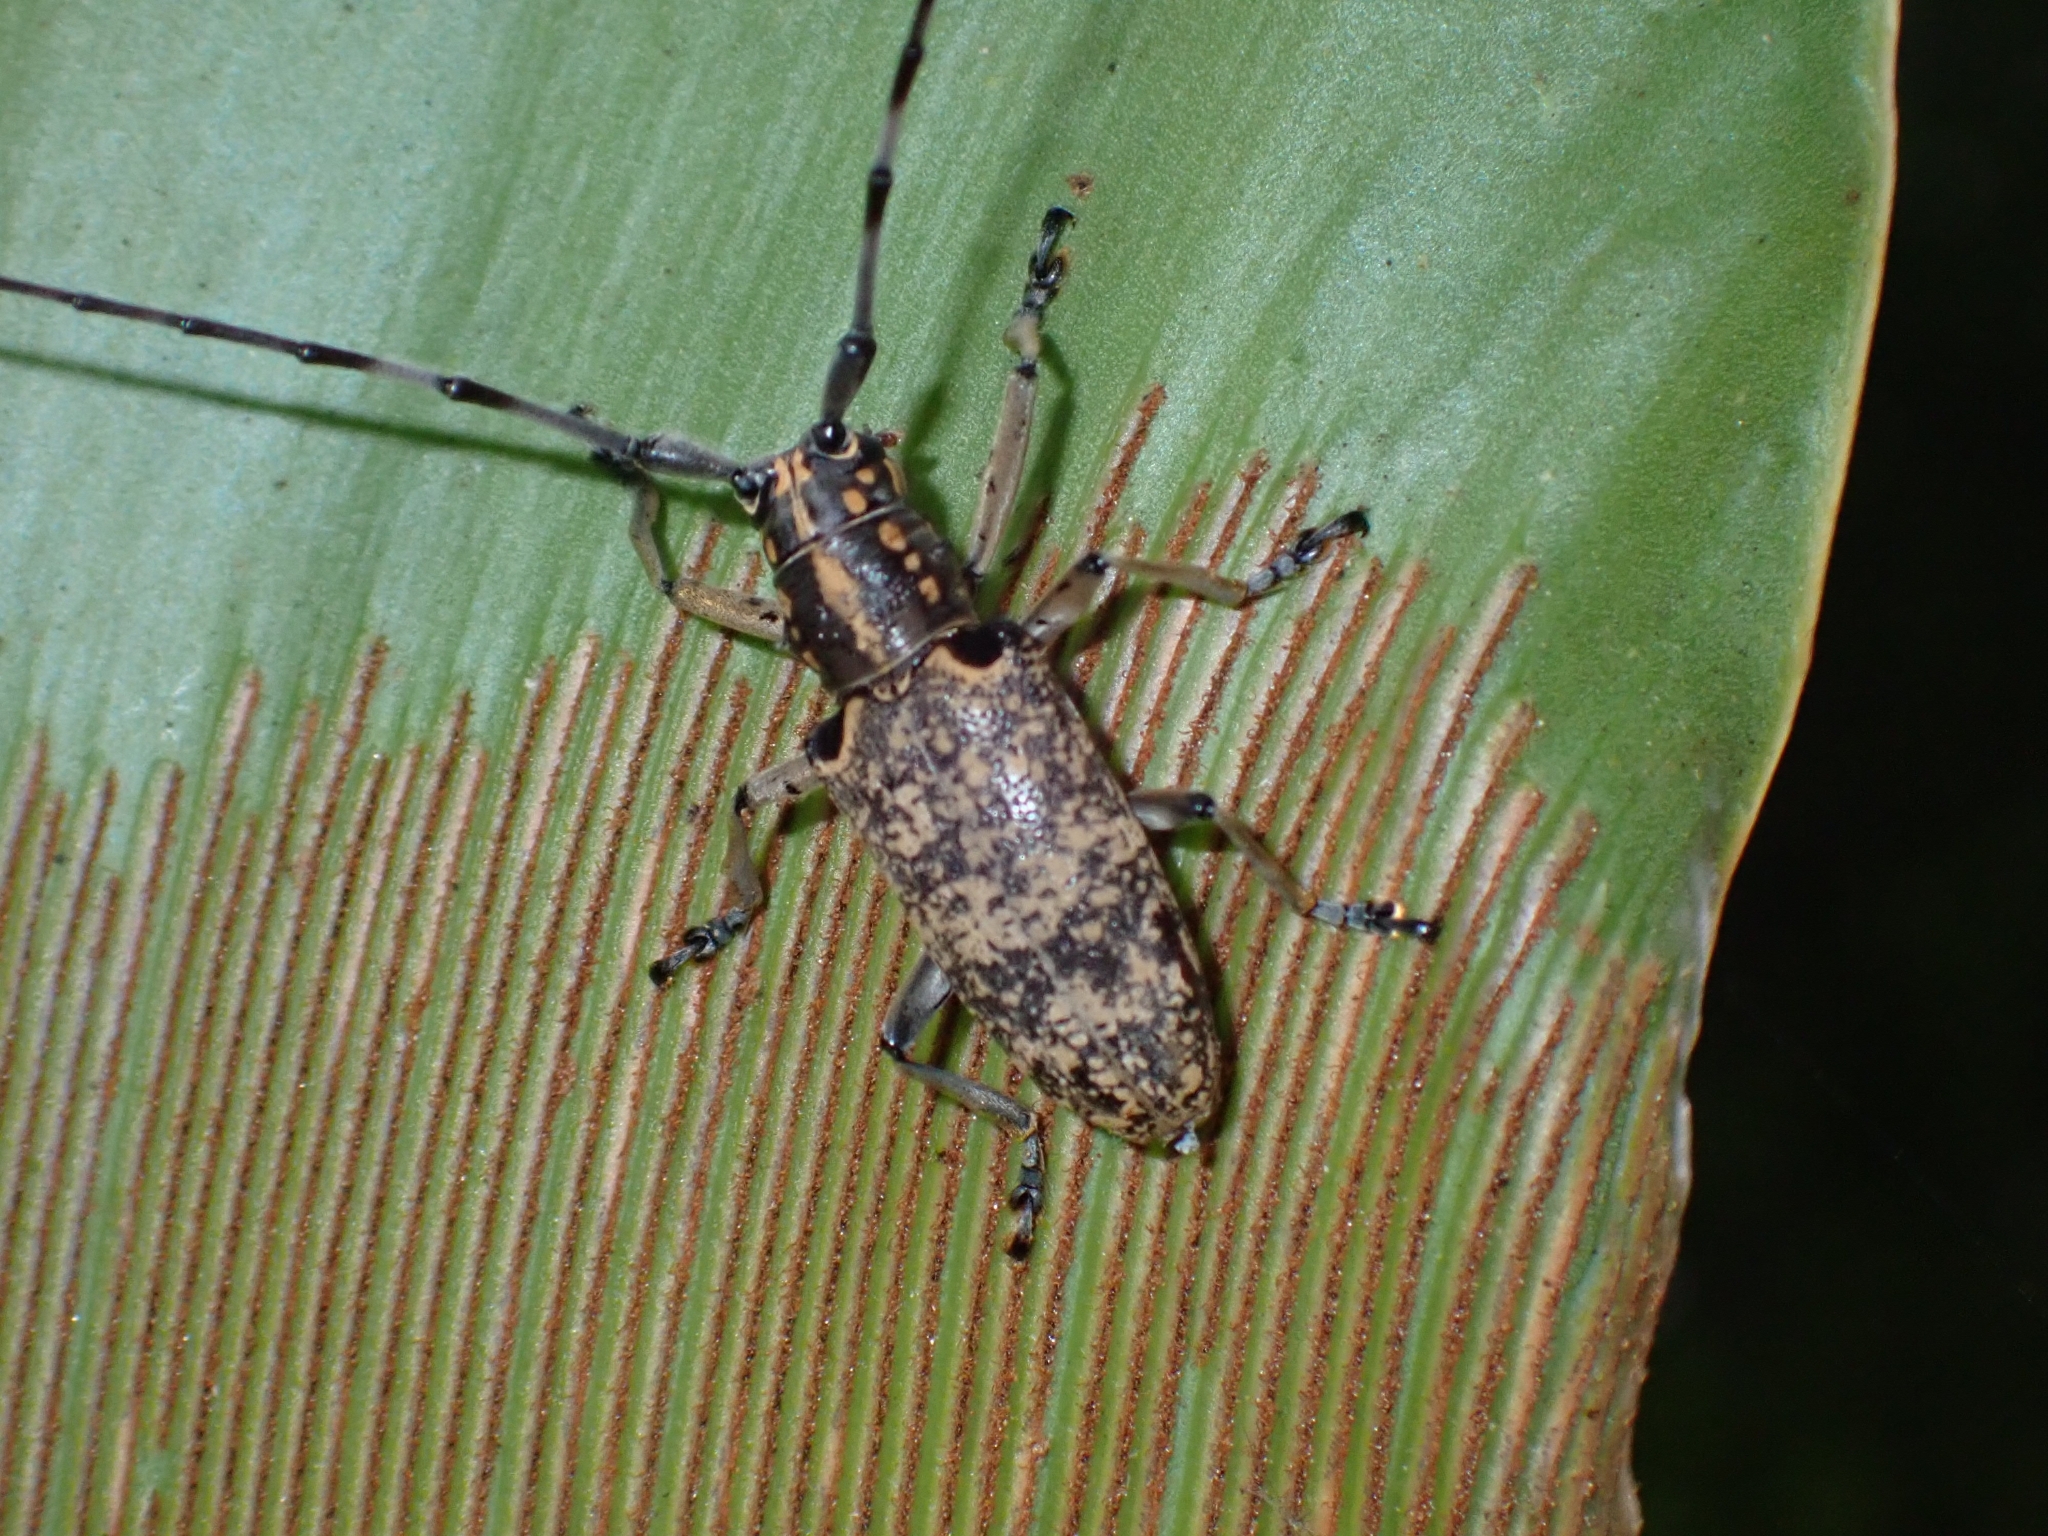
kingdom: Animalia
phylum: Arthropoda
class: Insecta
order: Coleoptera
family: Cerambycidae
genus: Epepeotes
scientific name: Epepeotes luscus
